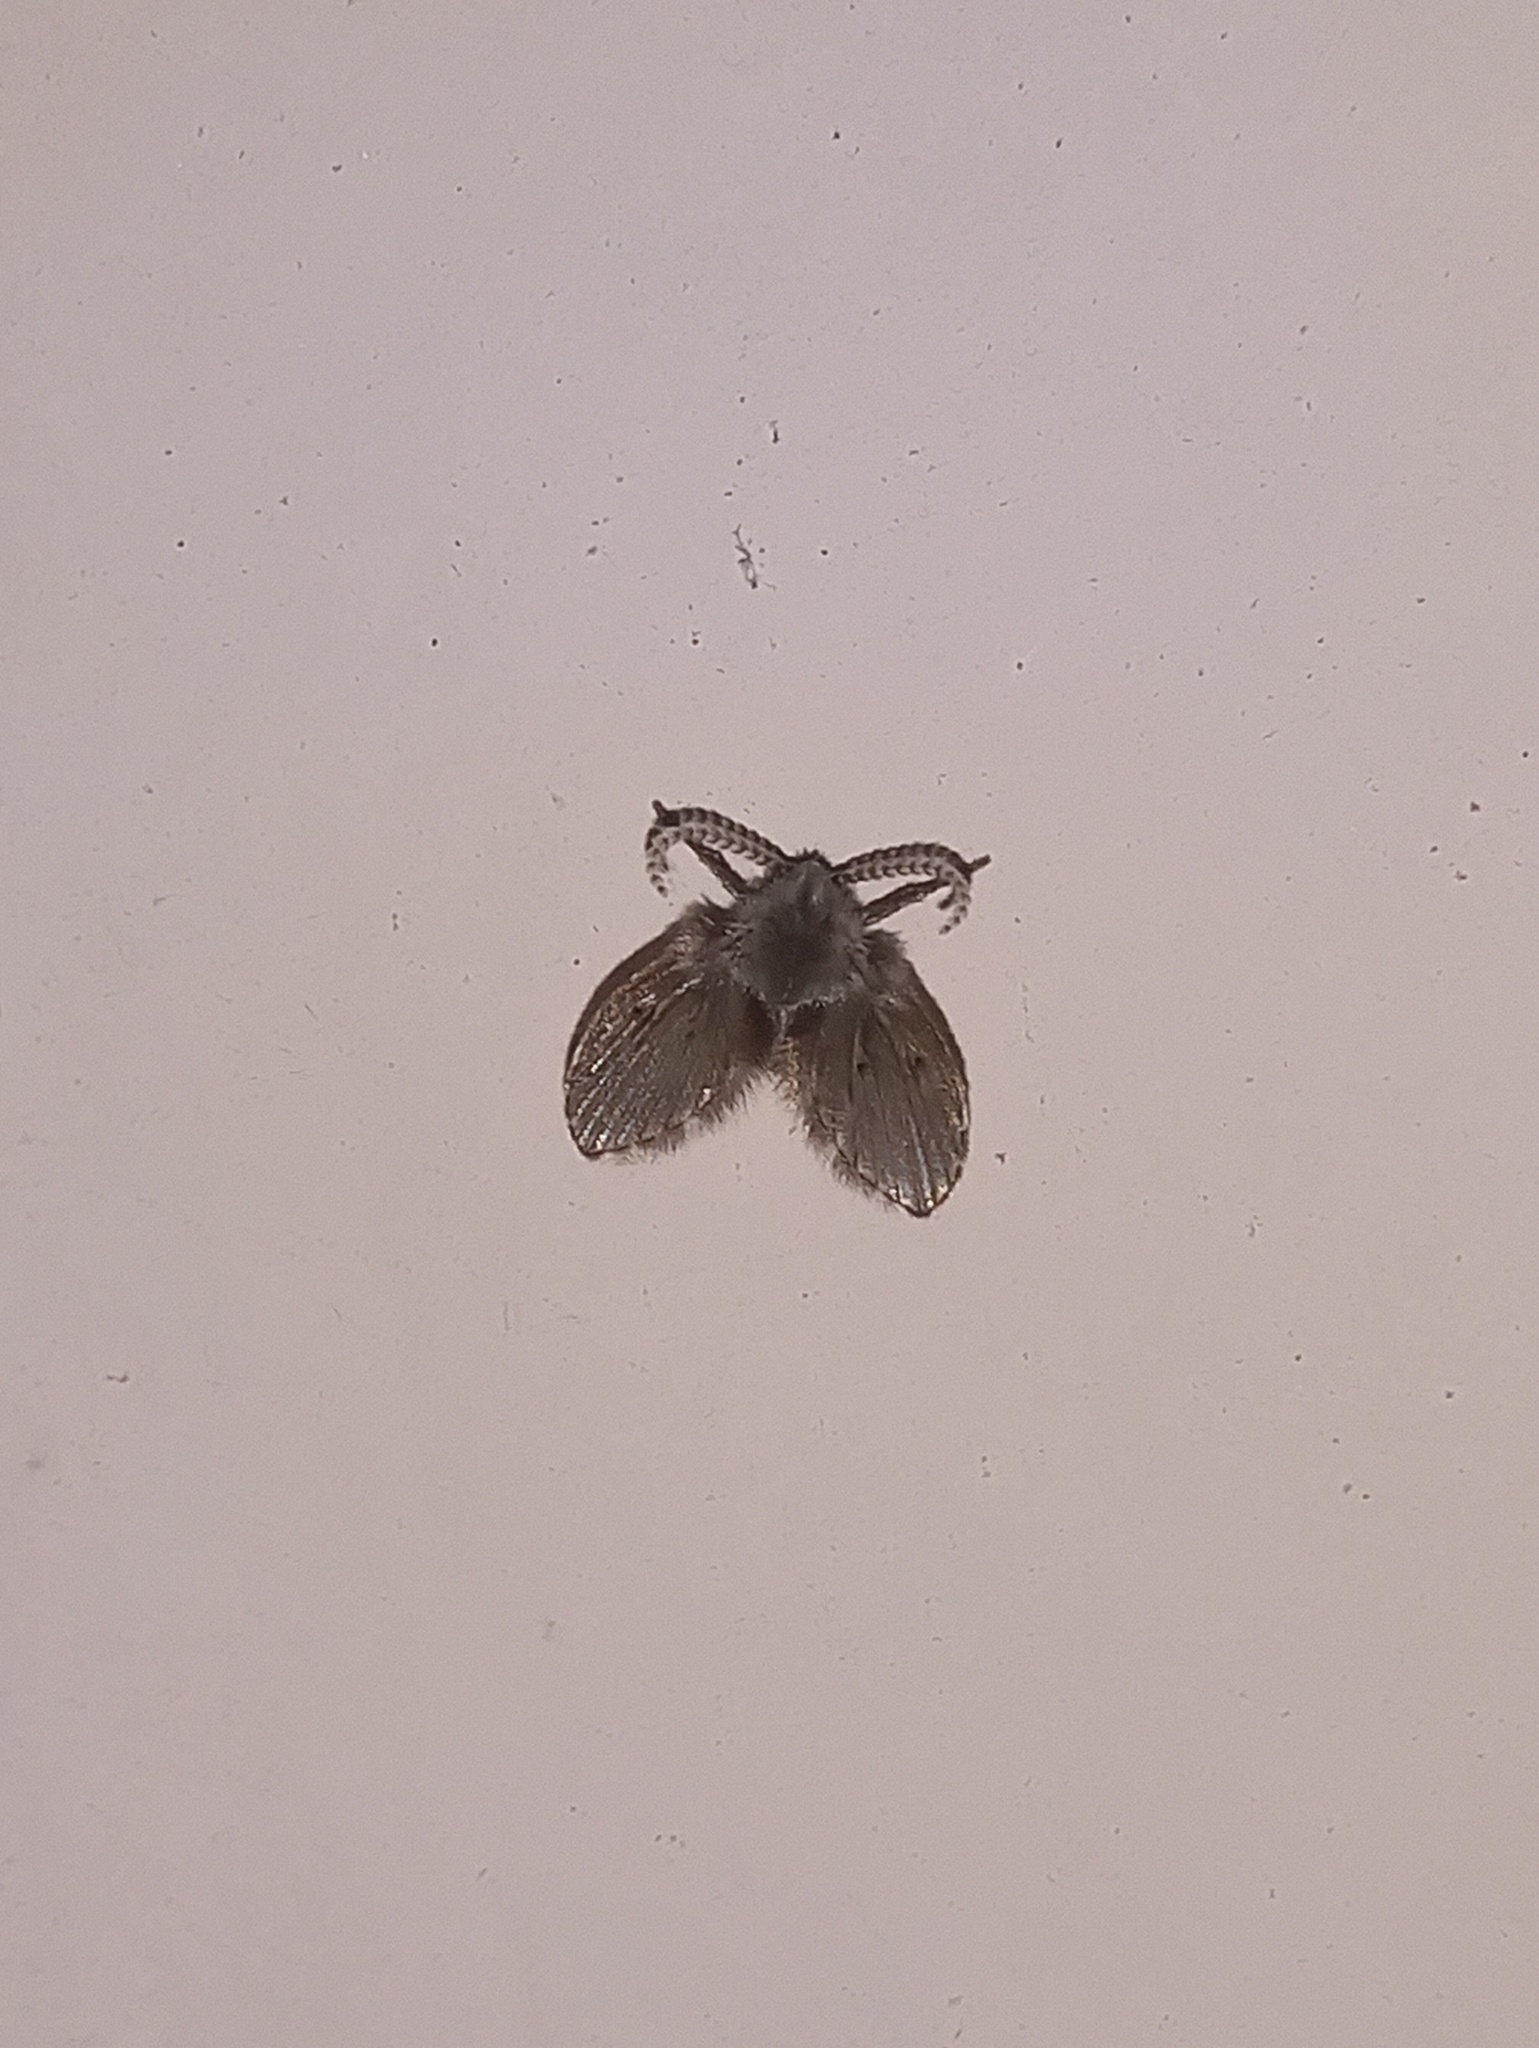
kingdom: Animalia
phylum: Arthropoda
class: Insecta
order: Diptera
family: Psychodidae
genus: Clogmia
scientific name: Clogmia albipunctatus
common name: White-spotted moth fly
